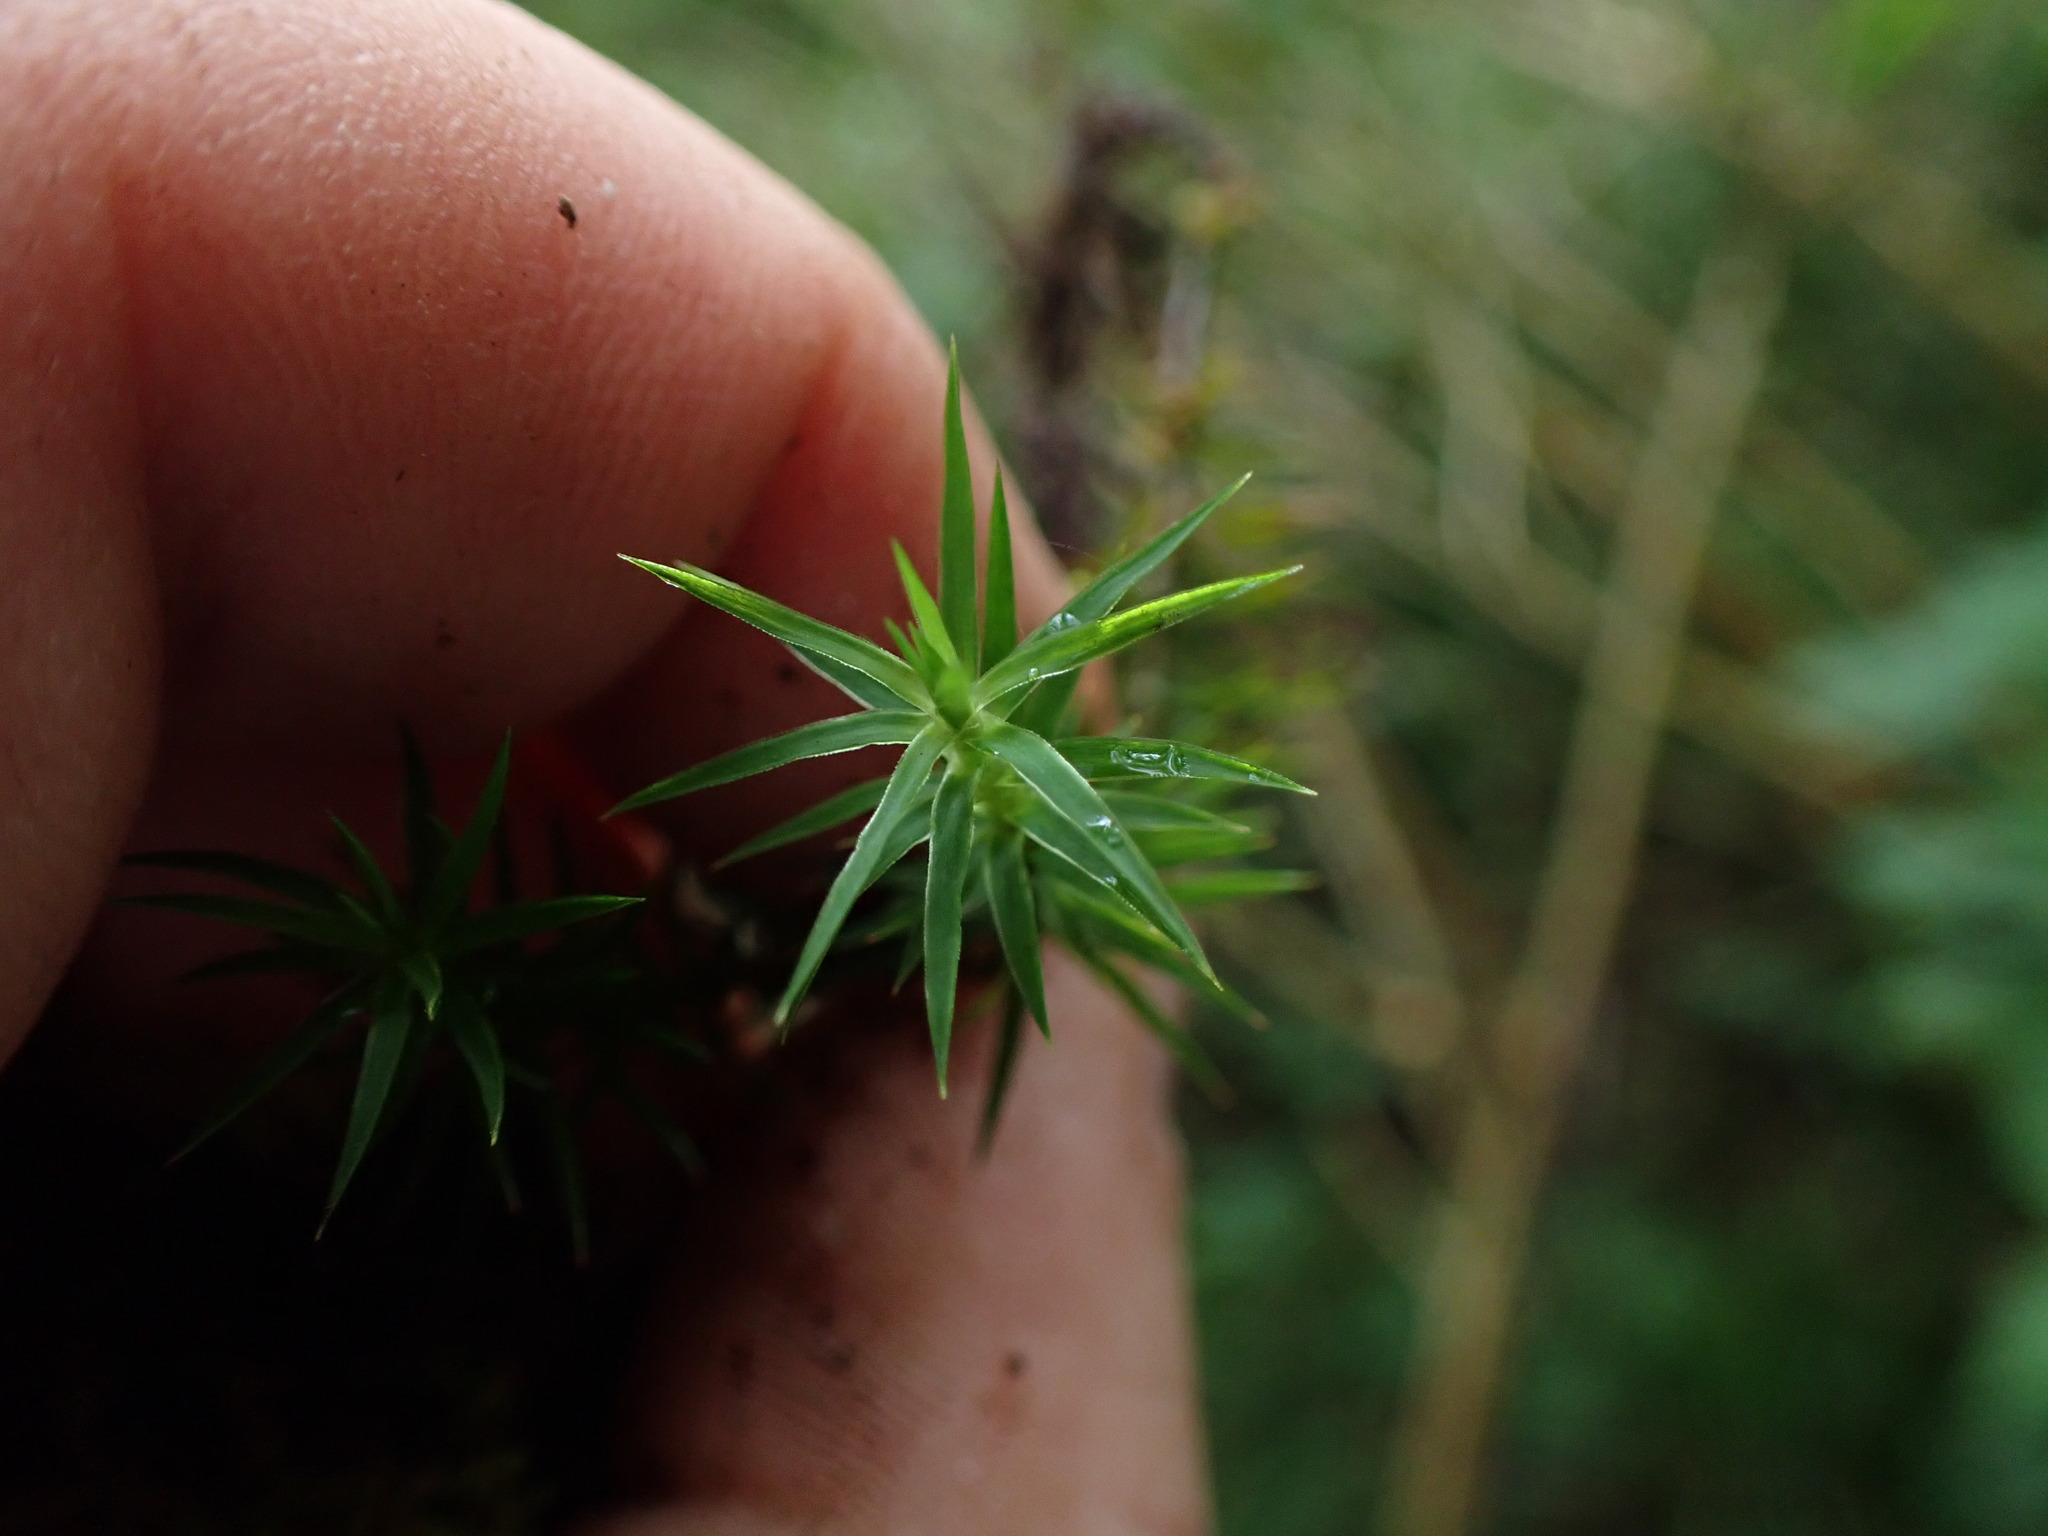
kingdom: Plantae
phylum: Bryophyta
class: Polytrichopsida
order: Polytrichales
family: Polytrichaceae
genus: Polytrichum
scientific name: Polytrichum formosum
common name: Bank haircap moss
